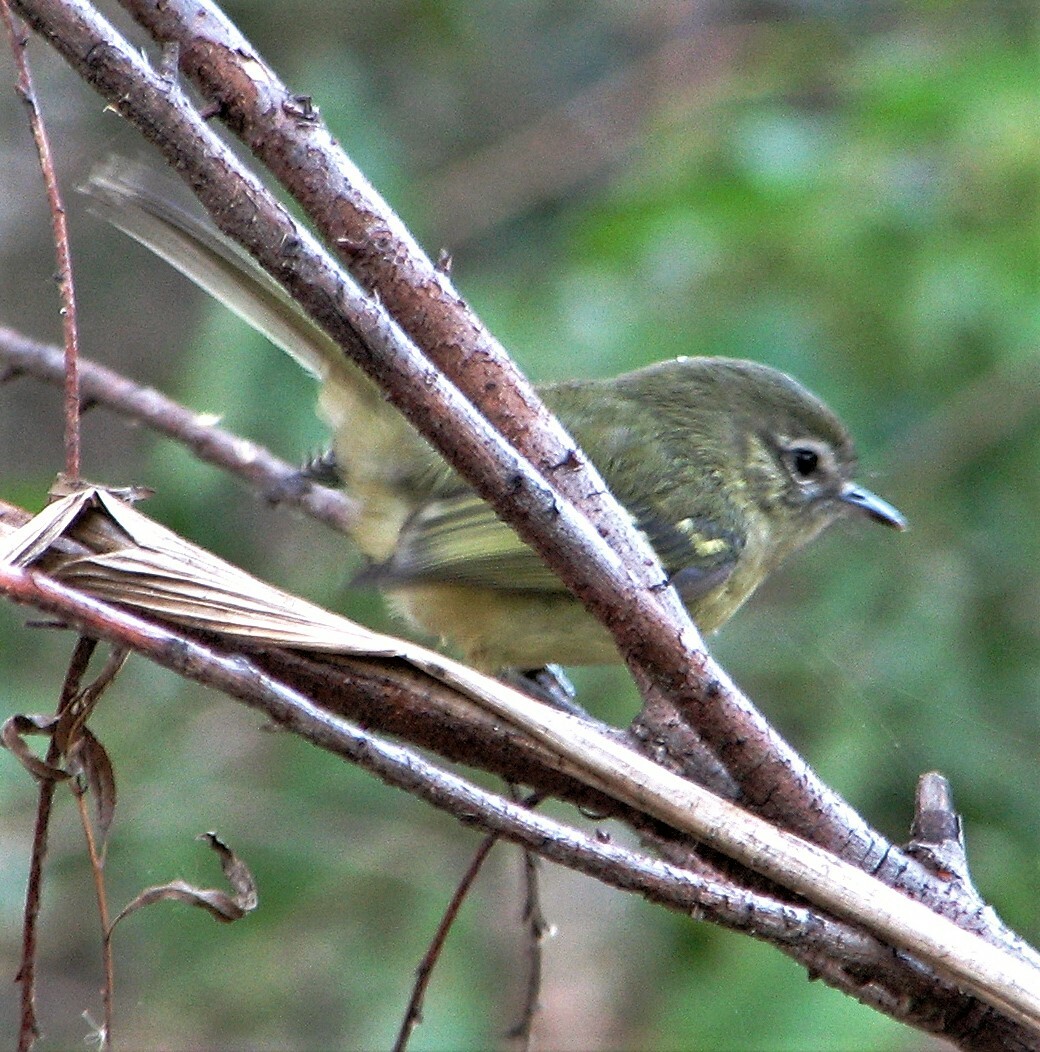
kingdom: Animalia
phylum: Chordata
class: Aves
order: Passeriformes
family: Tyrannidae
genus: Phylloscartes
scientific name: Phylloscartes ventralis
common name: Mottle-cheeked tyrannulet
